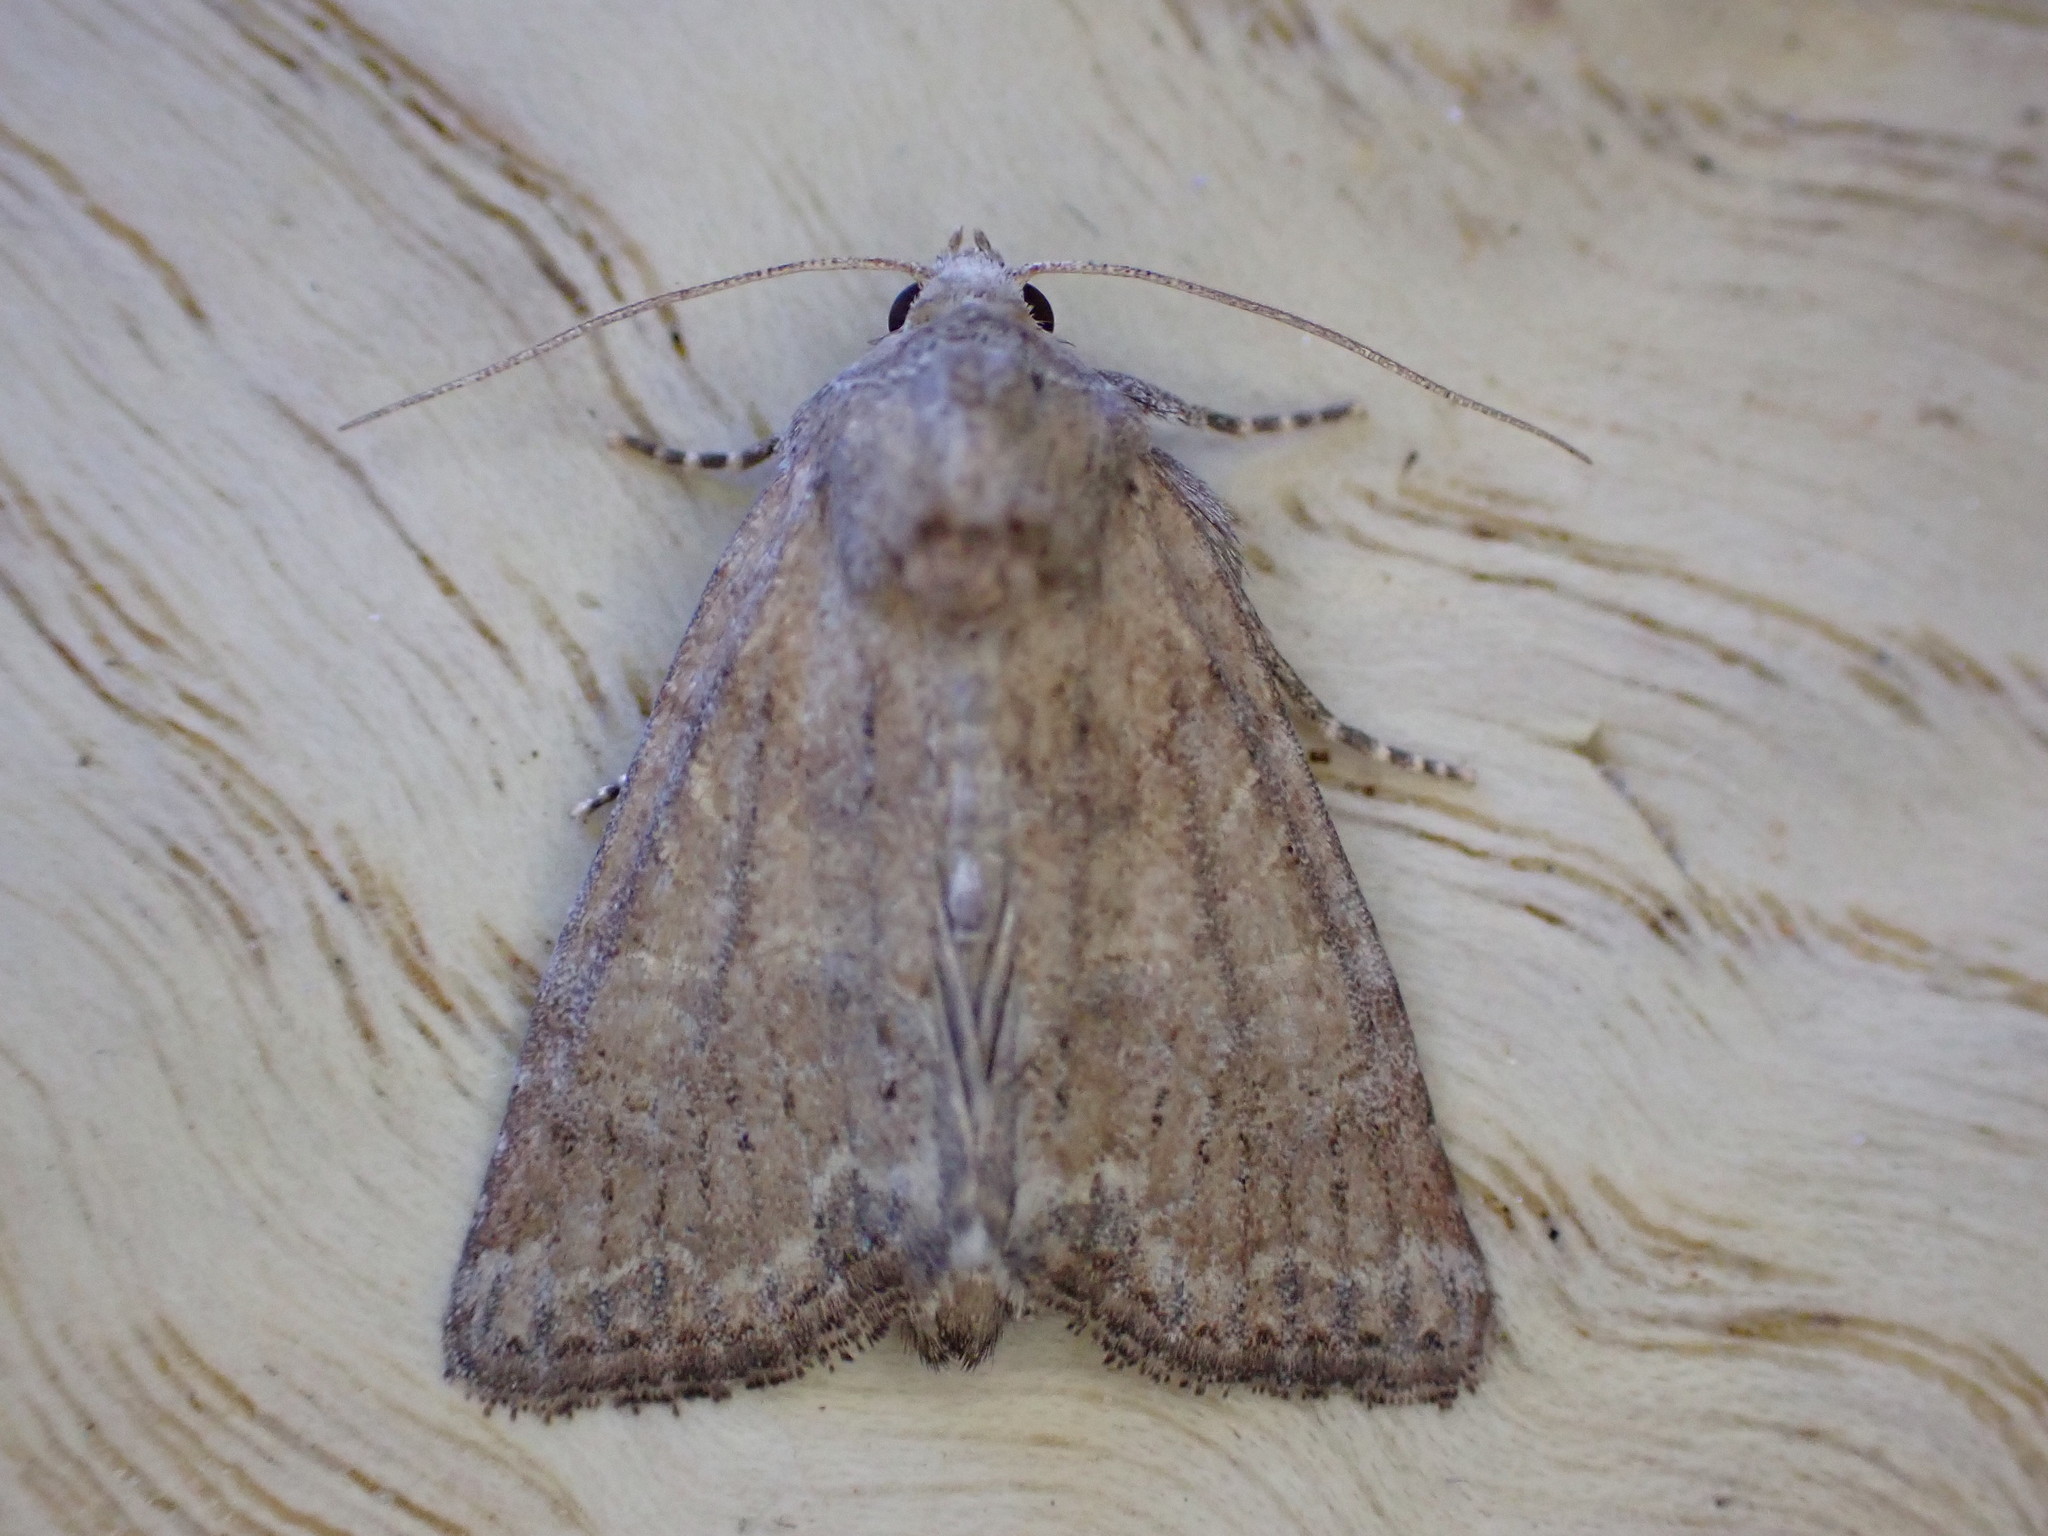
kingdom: Animalia
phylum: Arthropoda
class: Insecta
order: Lepidoptera
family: Noctuidae
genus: Mesoligia
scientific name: Mesoligia furuncula
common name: Cloaked minor
